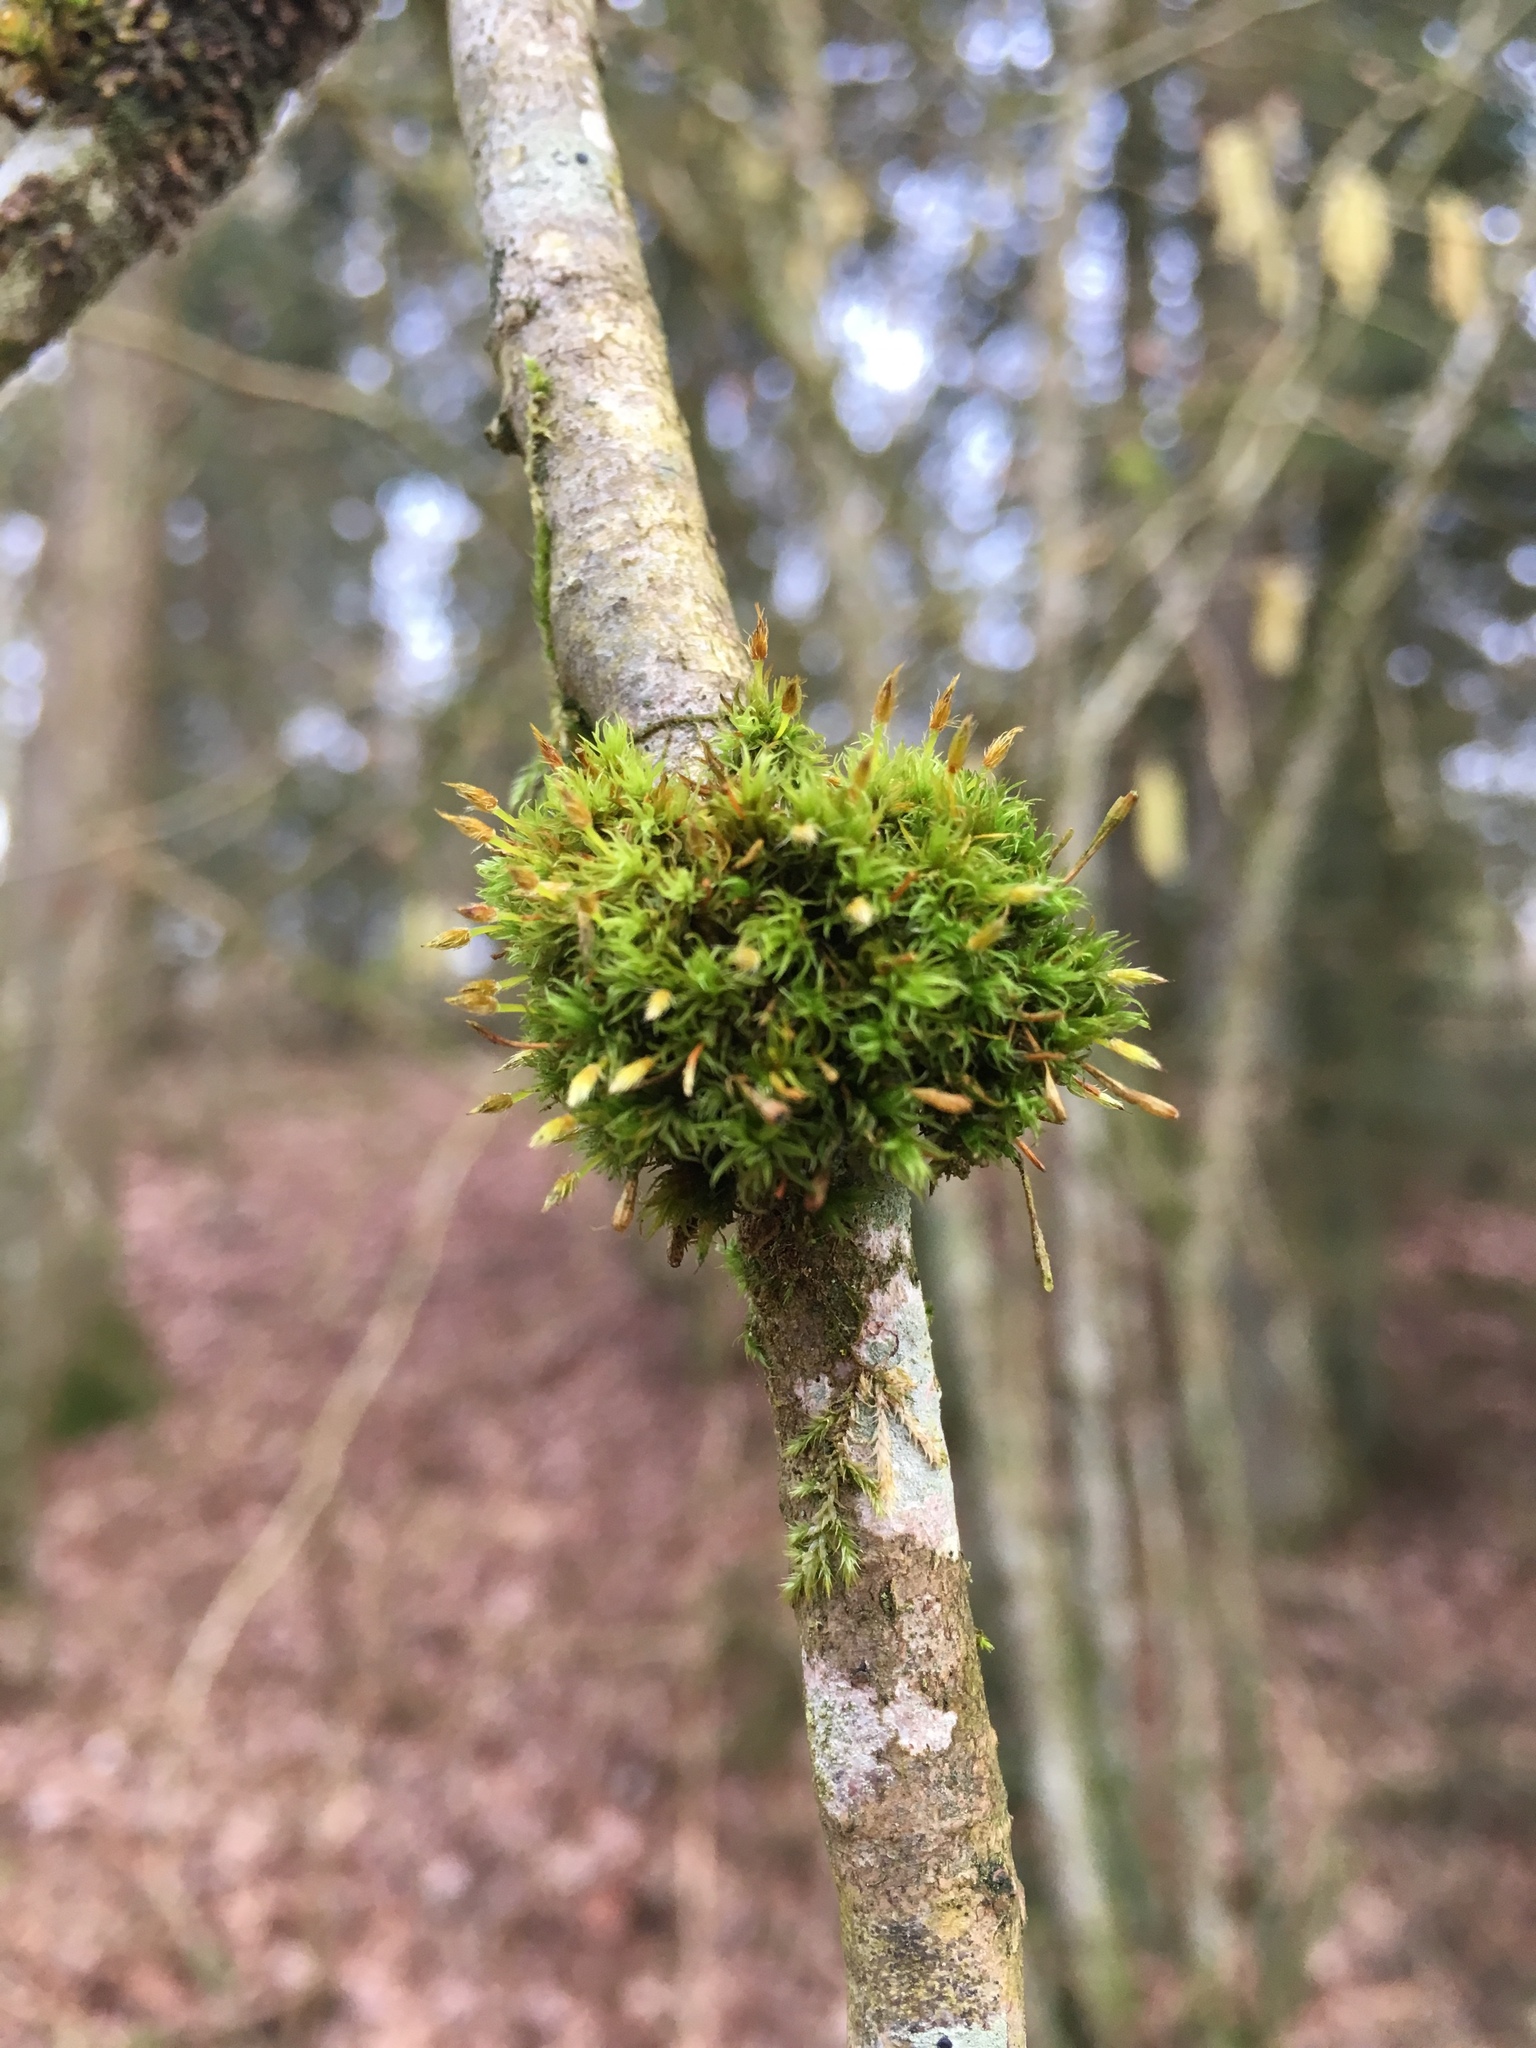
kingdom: Plantae
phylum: Bryophyta
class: Bryopsida
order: Orthotrichales
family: Orthotrichaceae
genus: Ulota
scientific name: Ulota bruchii
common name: Bruch's pincushion
